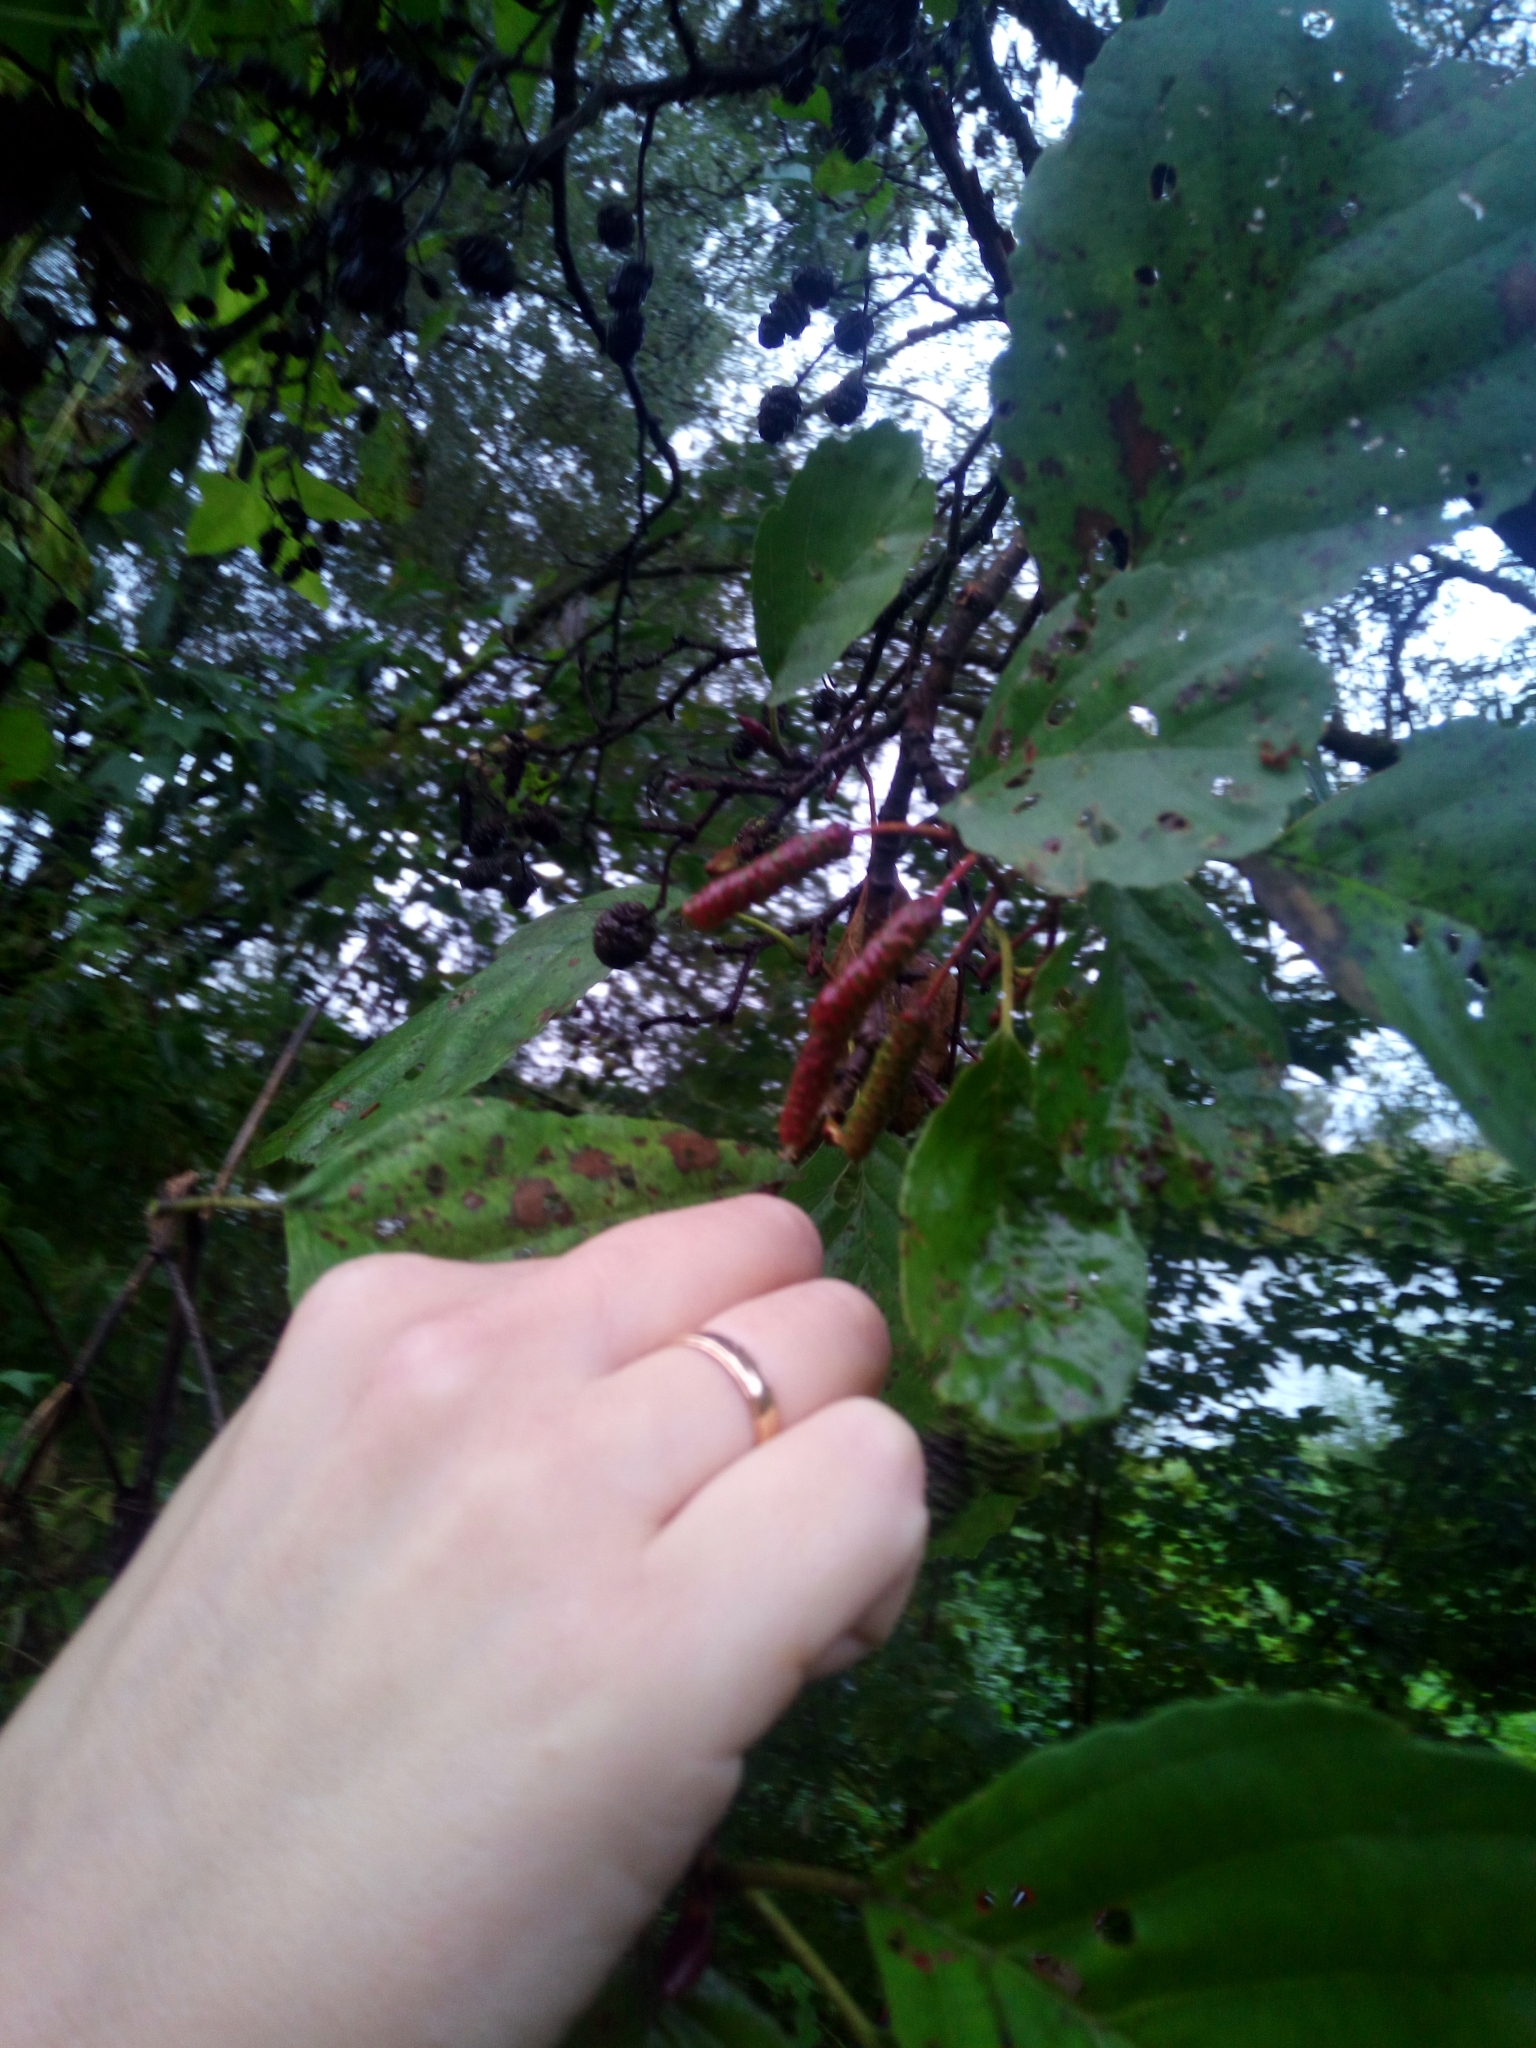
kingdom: Plantae
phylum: Tracheophyta
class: Magnoliopsida
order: Fagales
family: Betulaceae
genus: Alnus
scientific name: Alnus glutinosa
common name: Black alder
